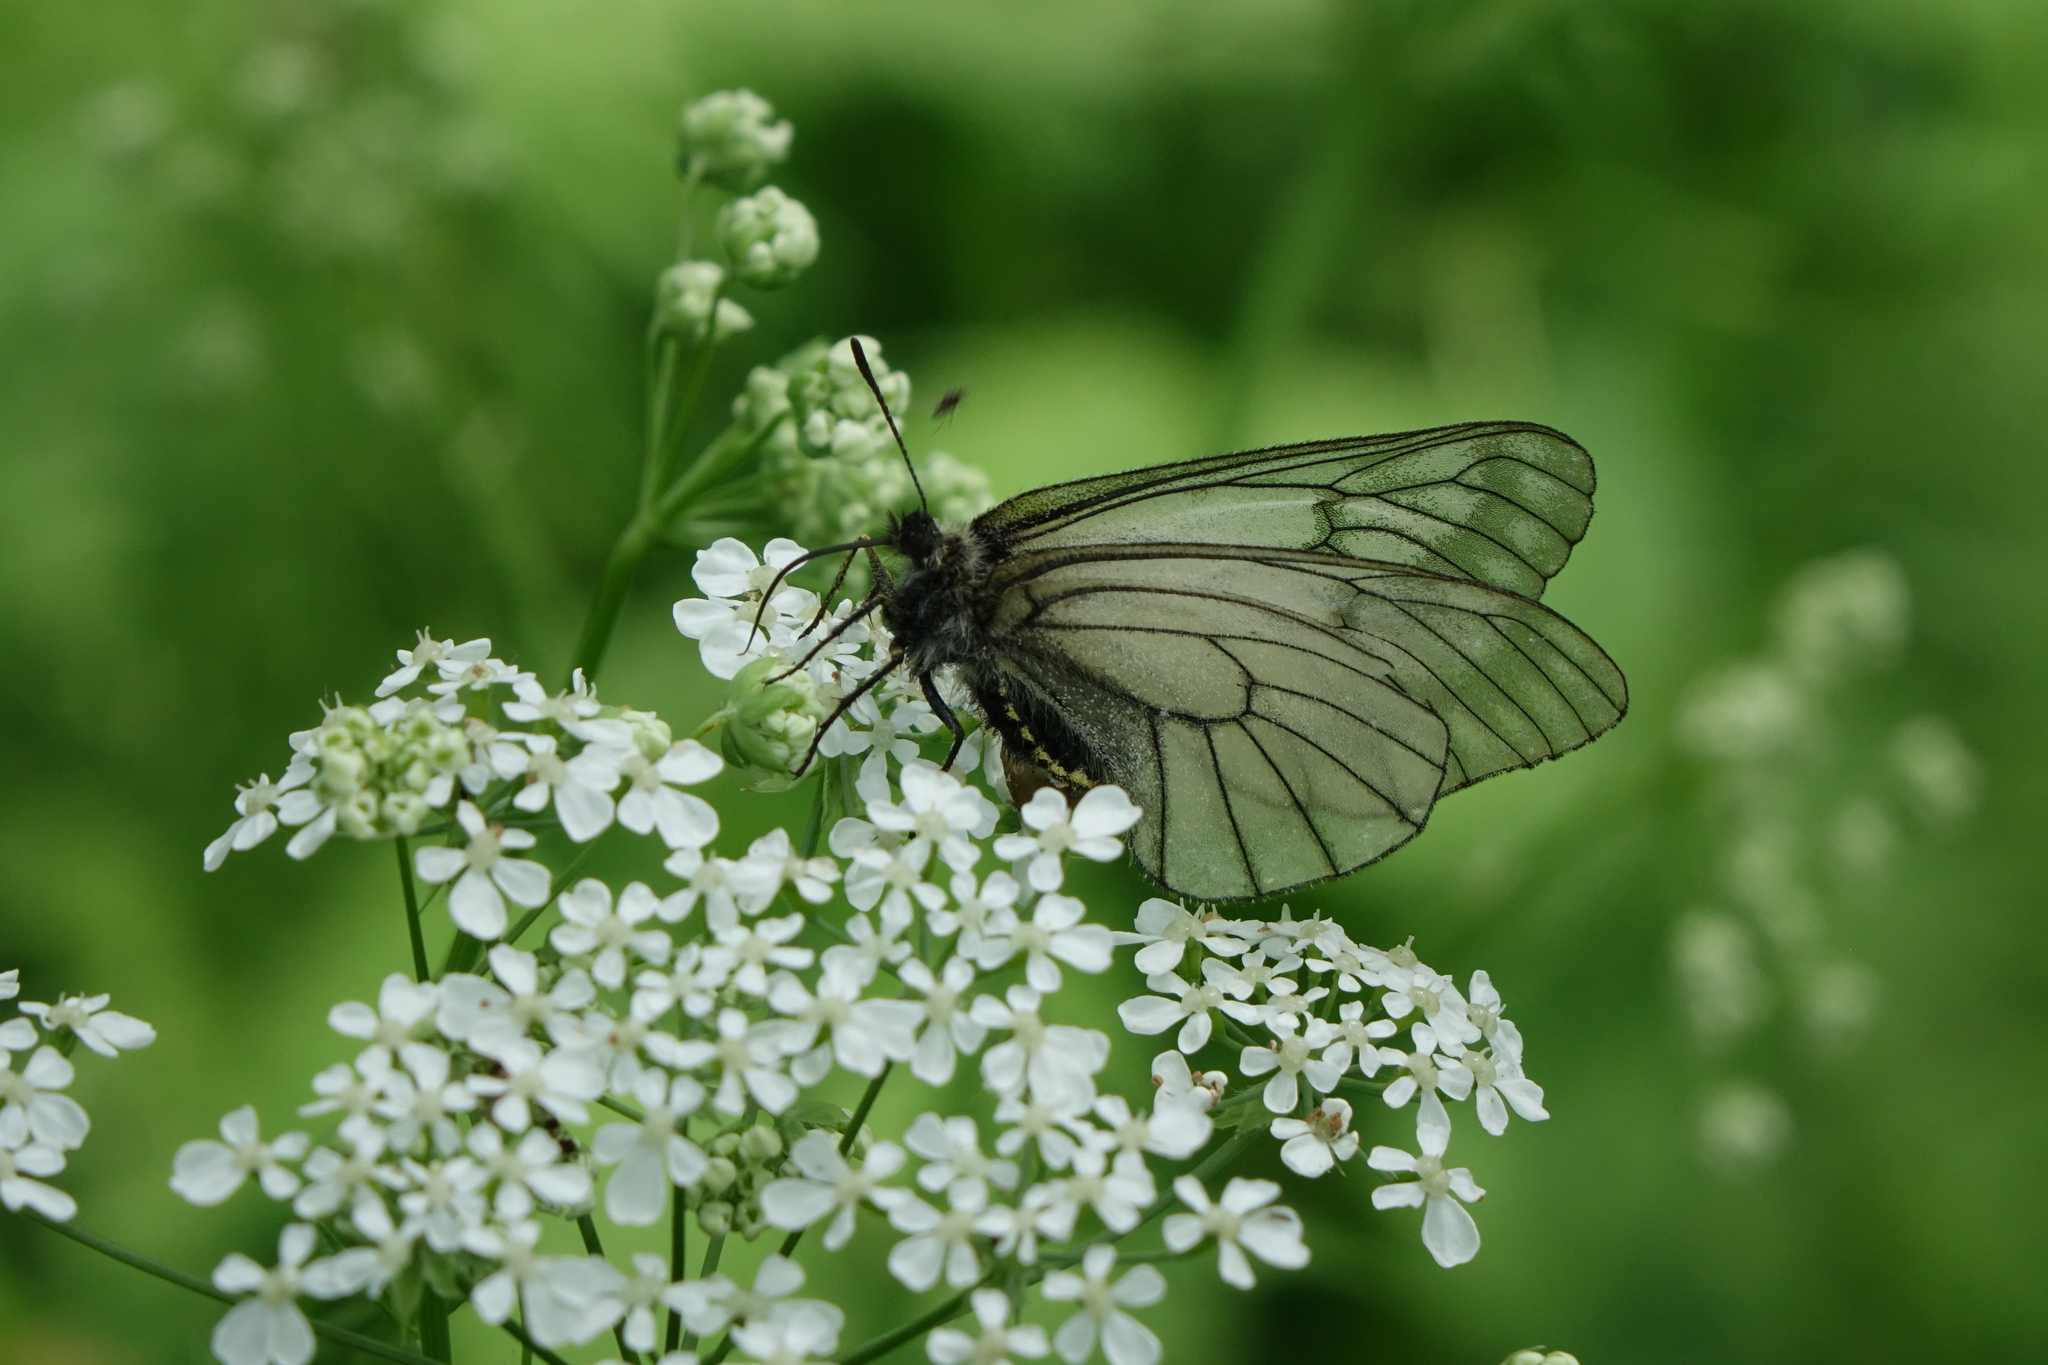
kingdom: Animalia
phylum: Arthropoda
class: Insecta
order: Lepidoptera
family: Papilionidae
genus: Parnassius
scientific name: Parnassius stubbendorfii
